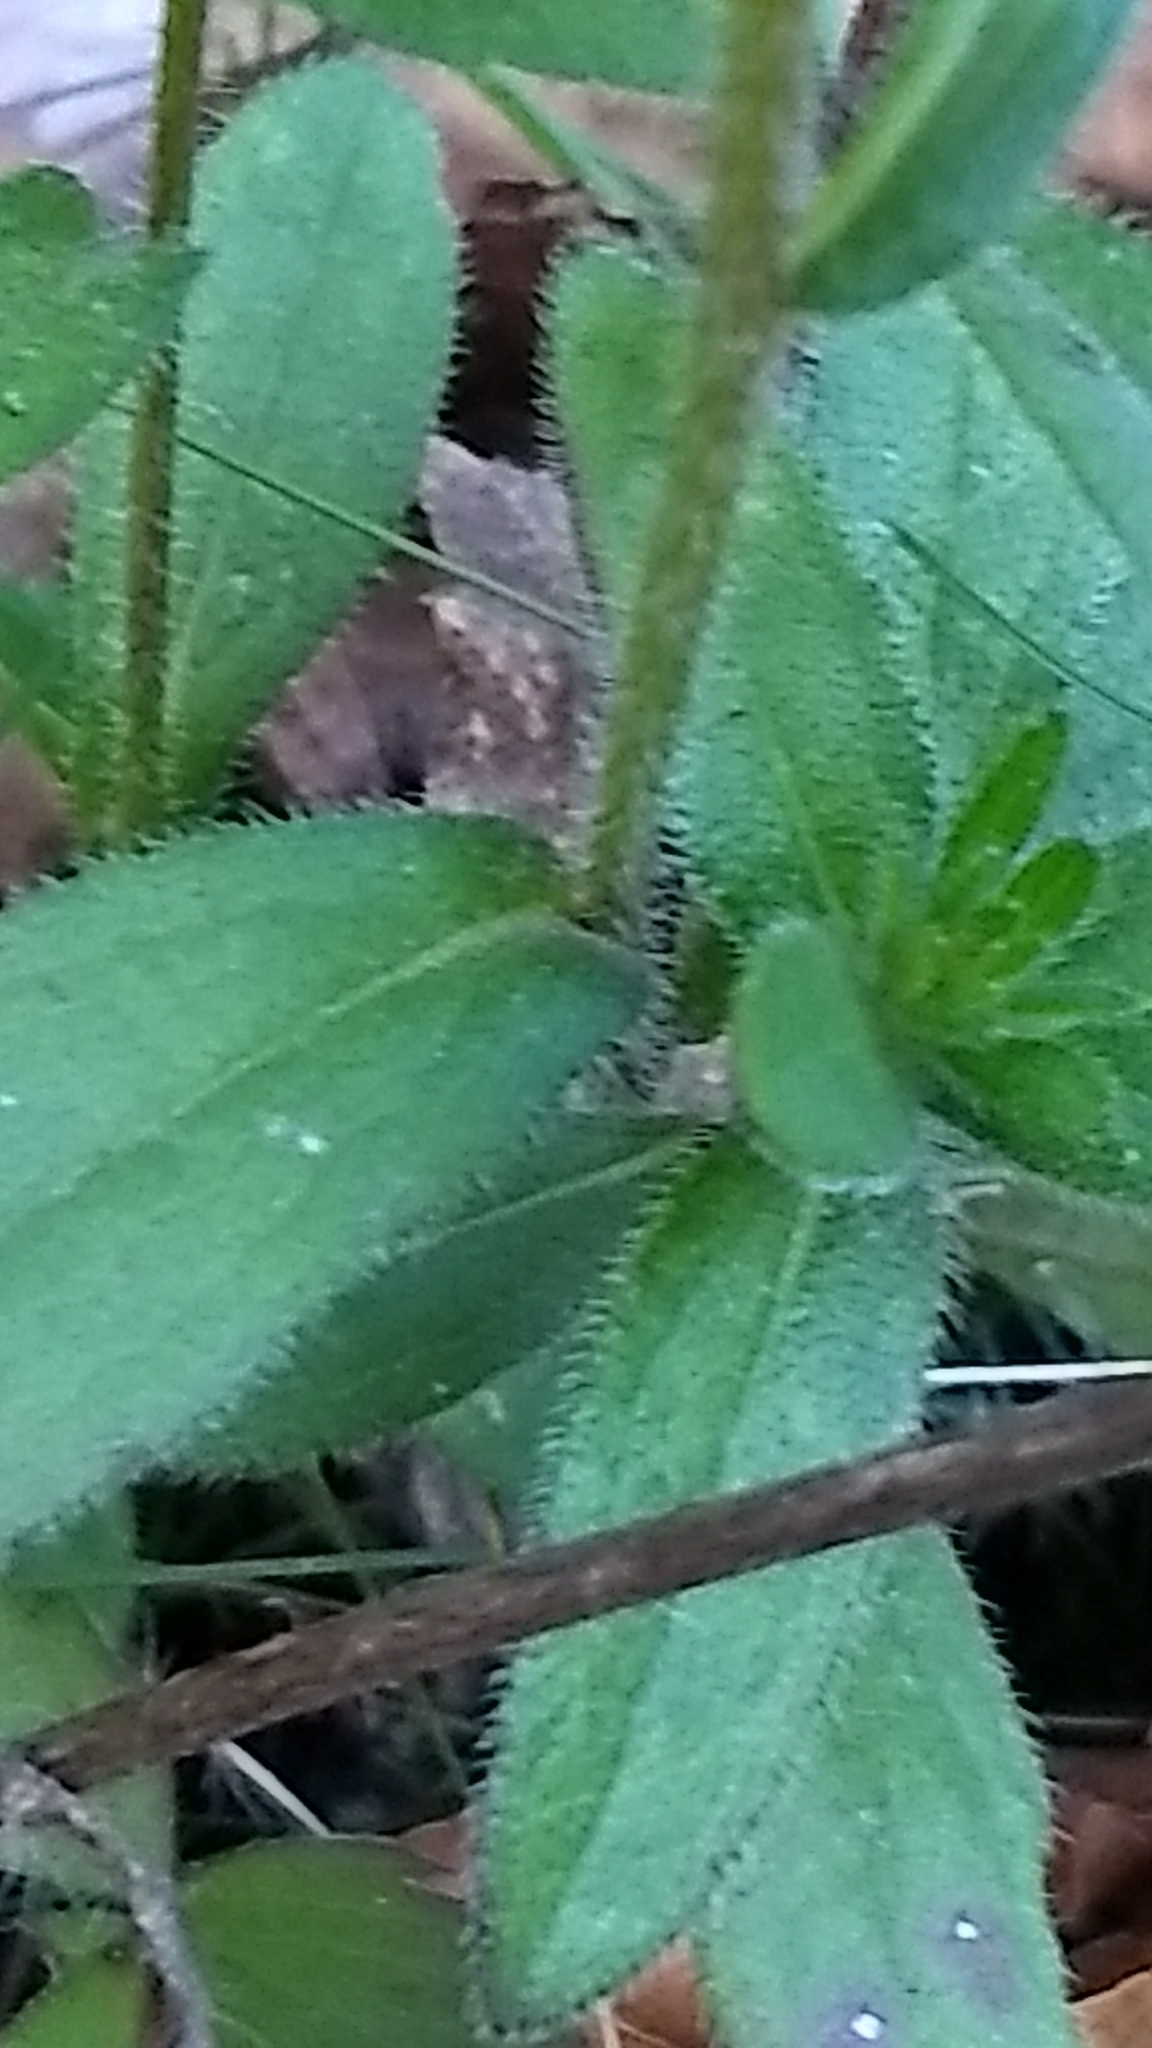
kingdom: Plantae
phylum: Tracheophyta
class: Magnoliopsida
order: Asterales
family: Asteraceae
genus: Rudbeckia
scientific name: Rudbeckia hirta
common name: Black-eyed-susan
